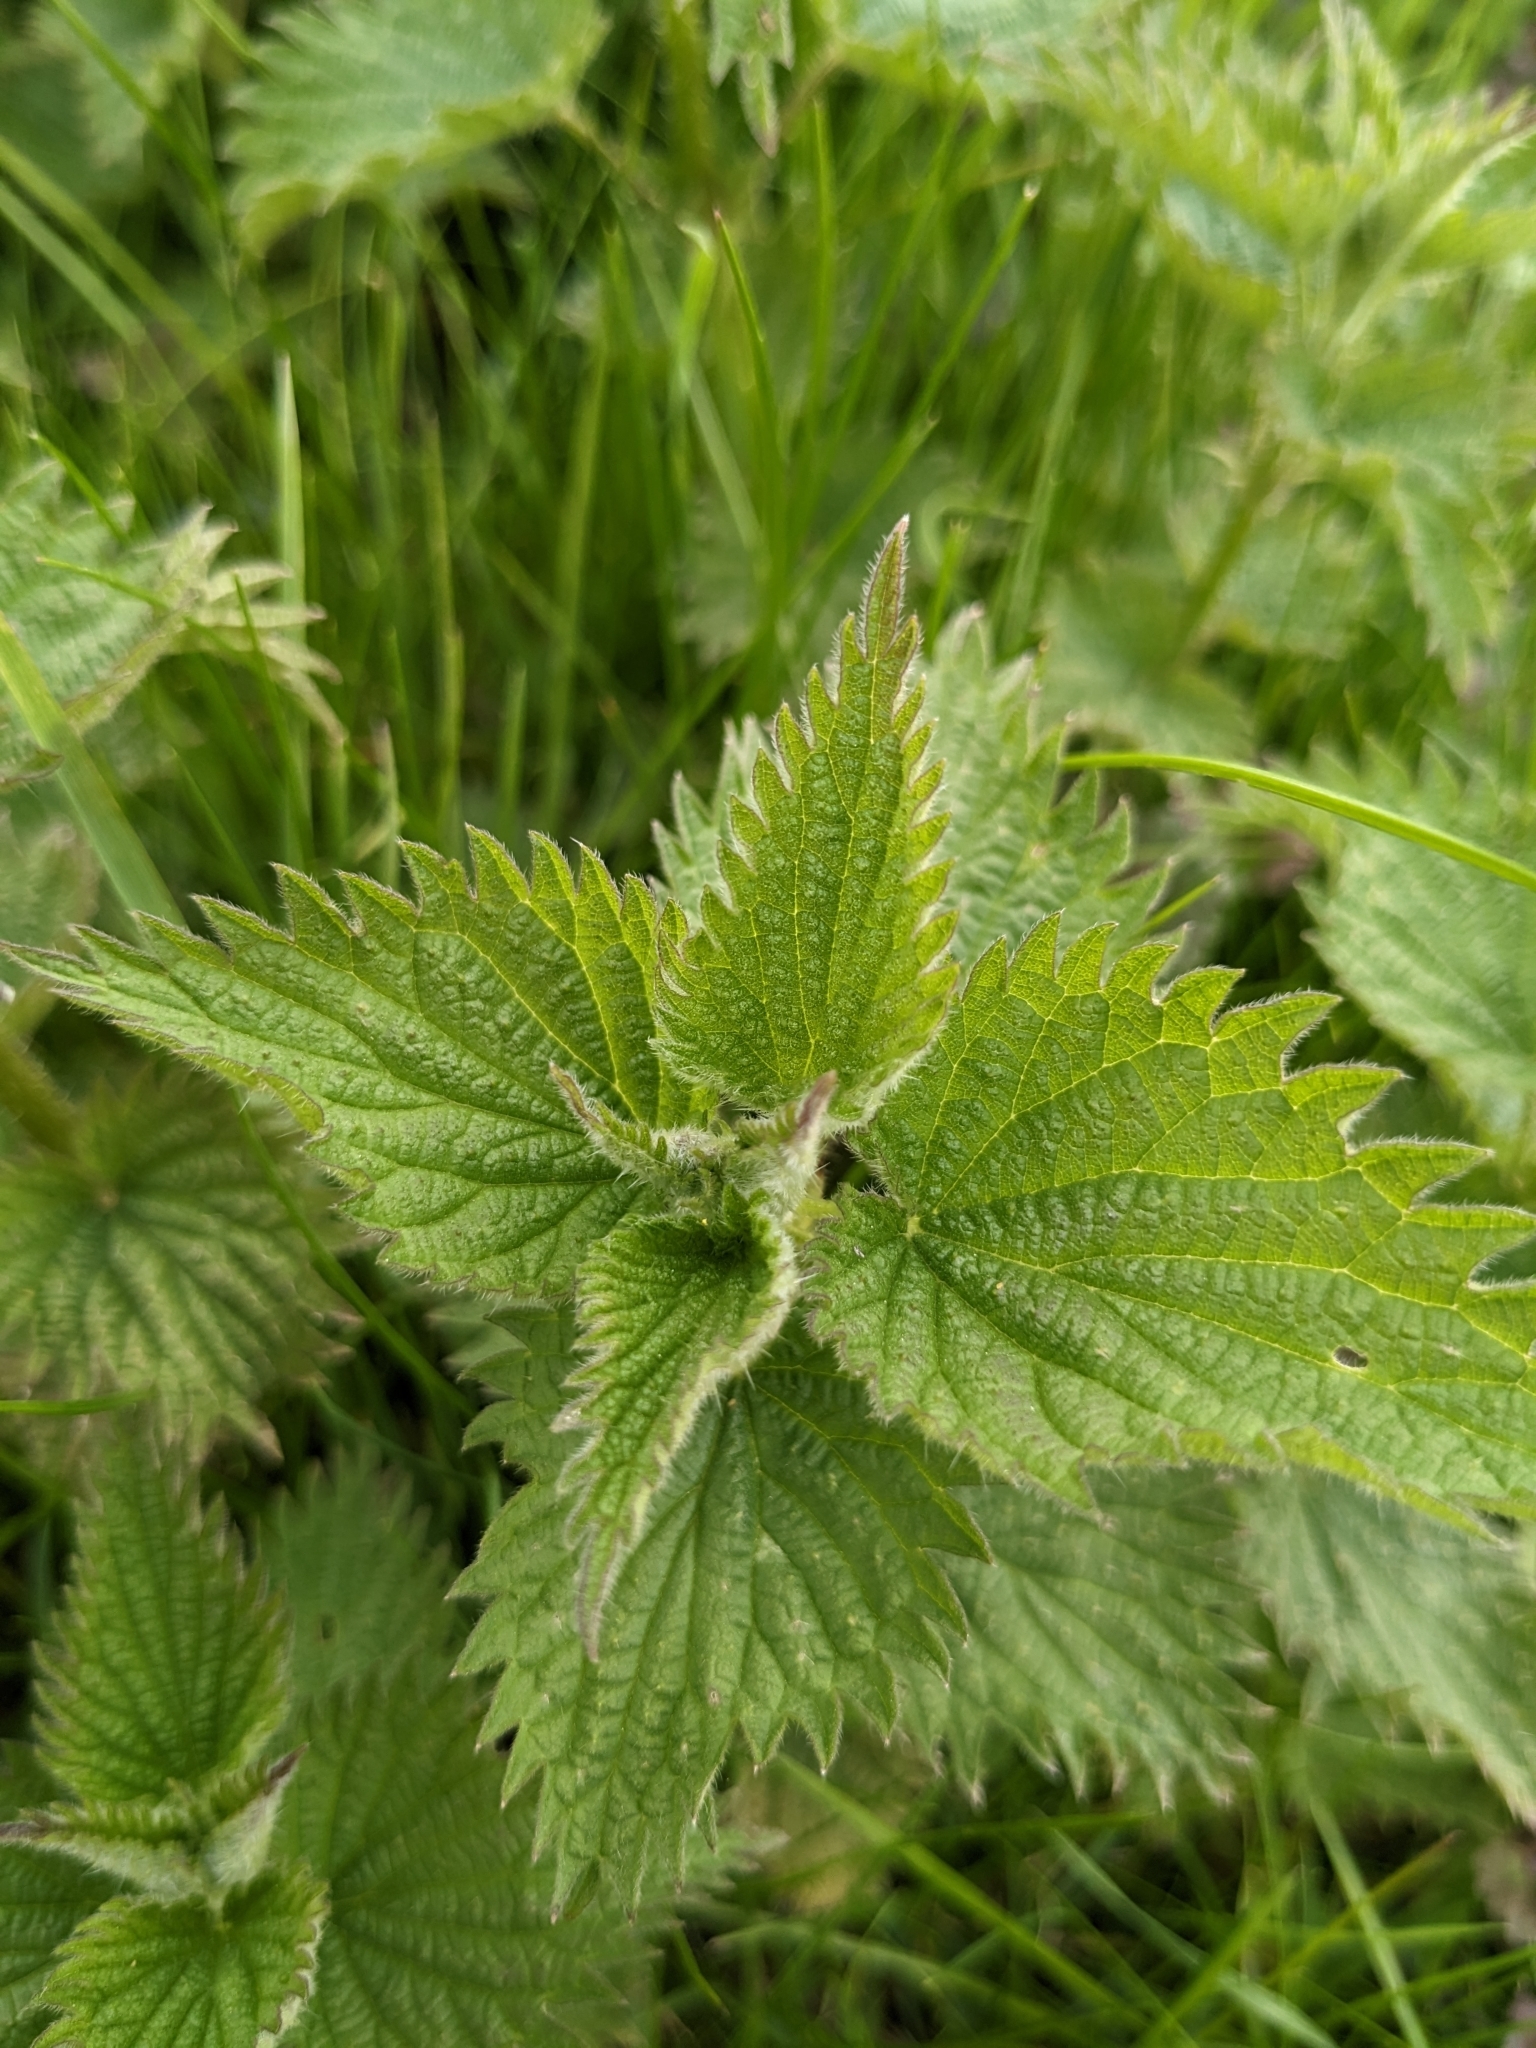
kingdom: Plantae
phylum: Tracheophyta
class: Magnoliopsida
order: Rosales
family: Urticaceae
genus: Urtica
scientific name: Urtica dioica
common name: Common nettle
